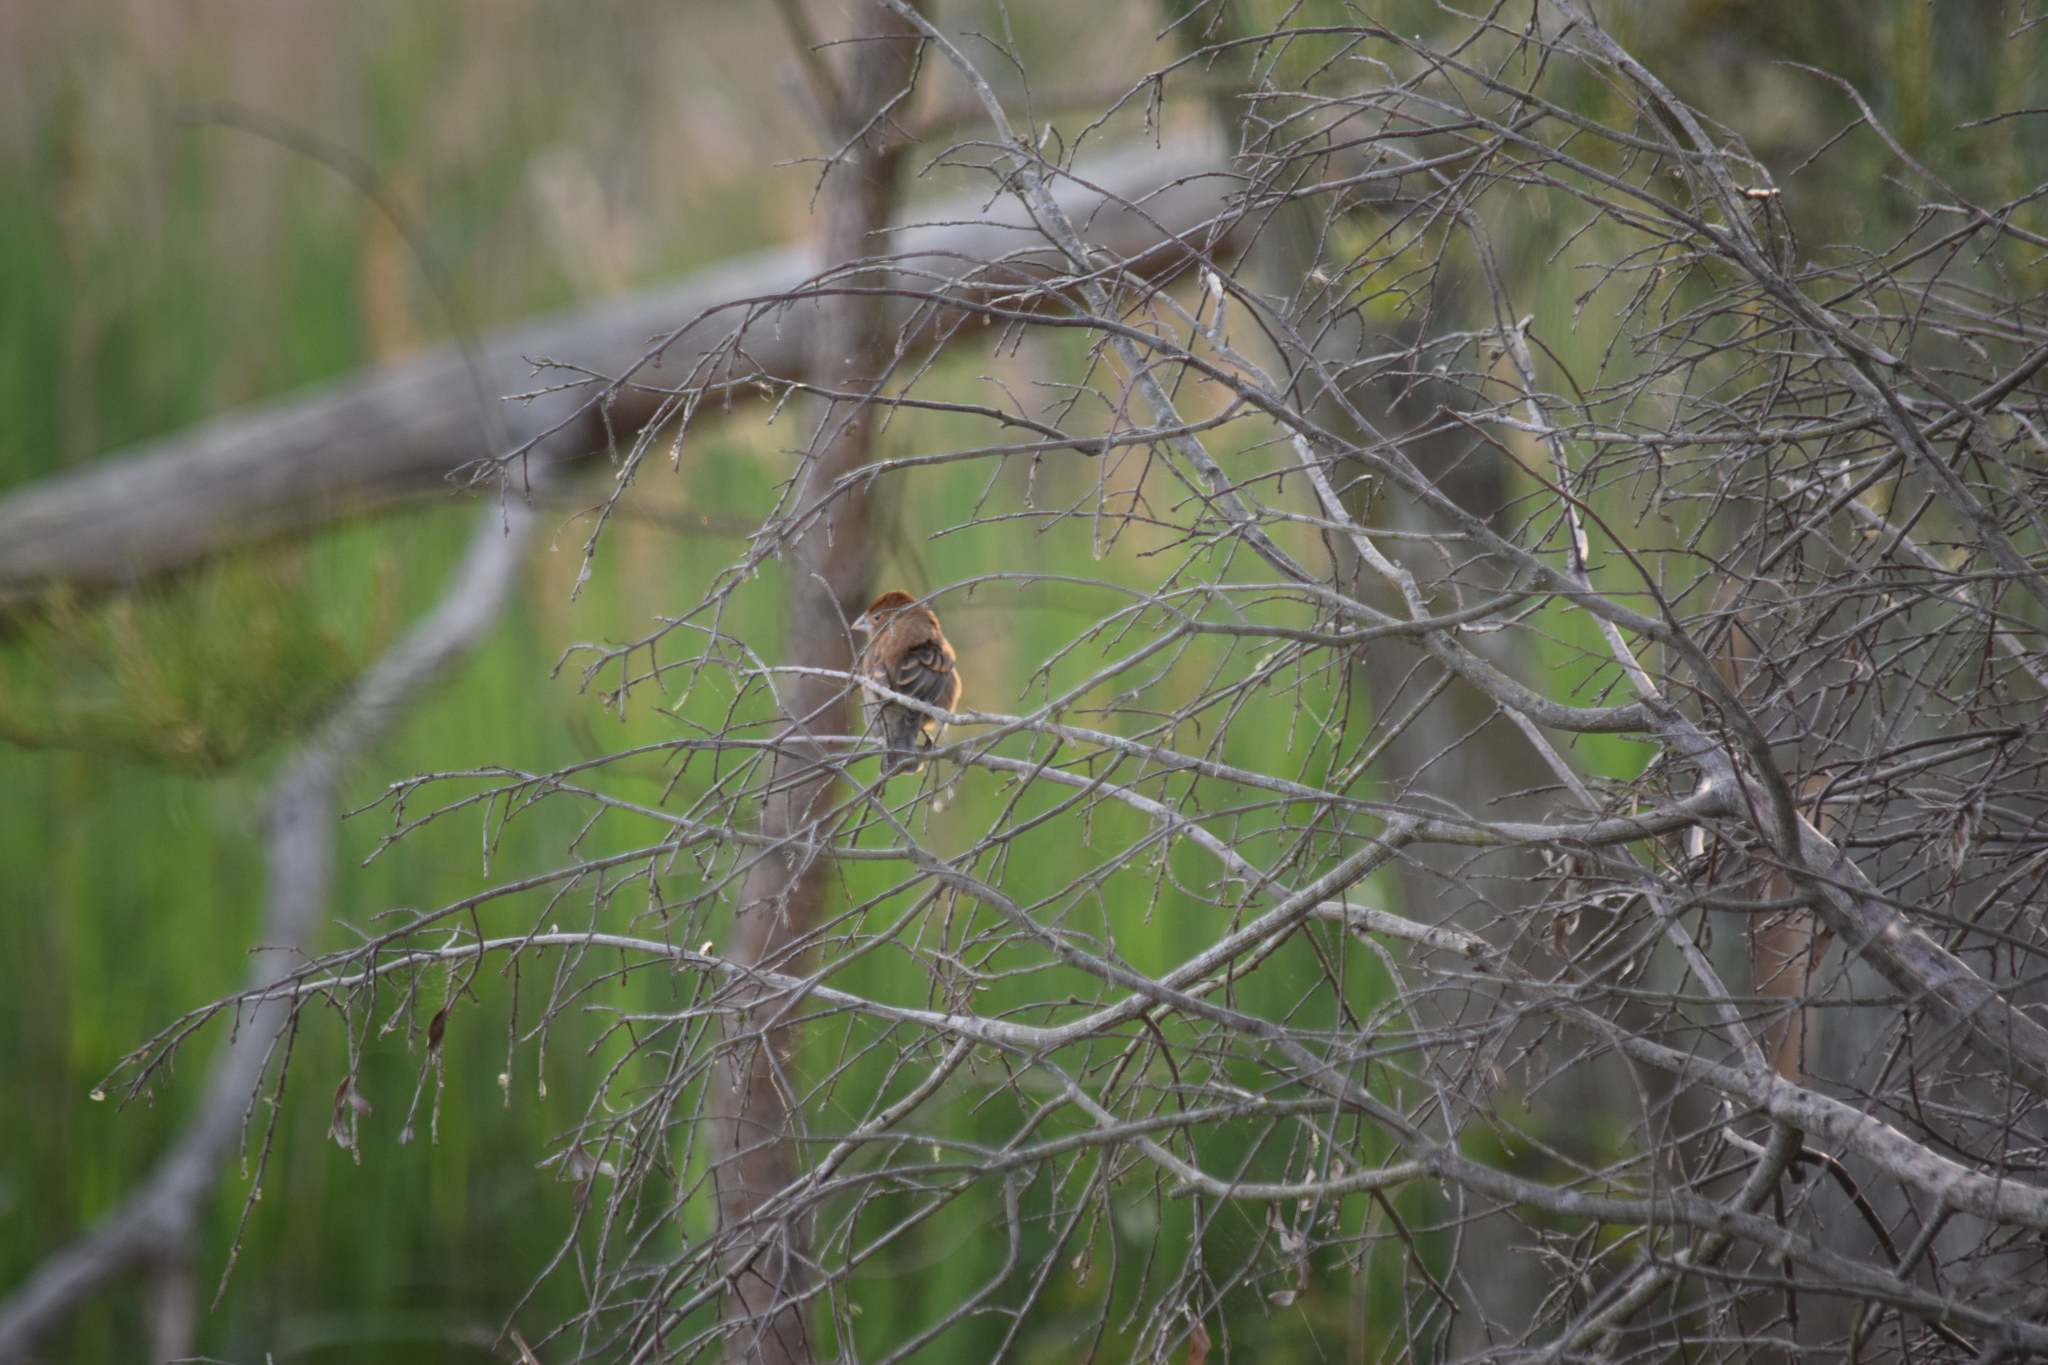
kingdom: Animalia
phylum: Chordata
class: Aves
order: Passeriformes
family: Cardinalidae
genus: Passerina
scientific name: Passerina caerulea
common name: Blue grosbeak
